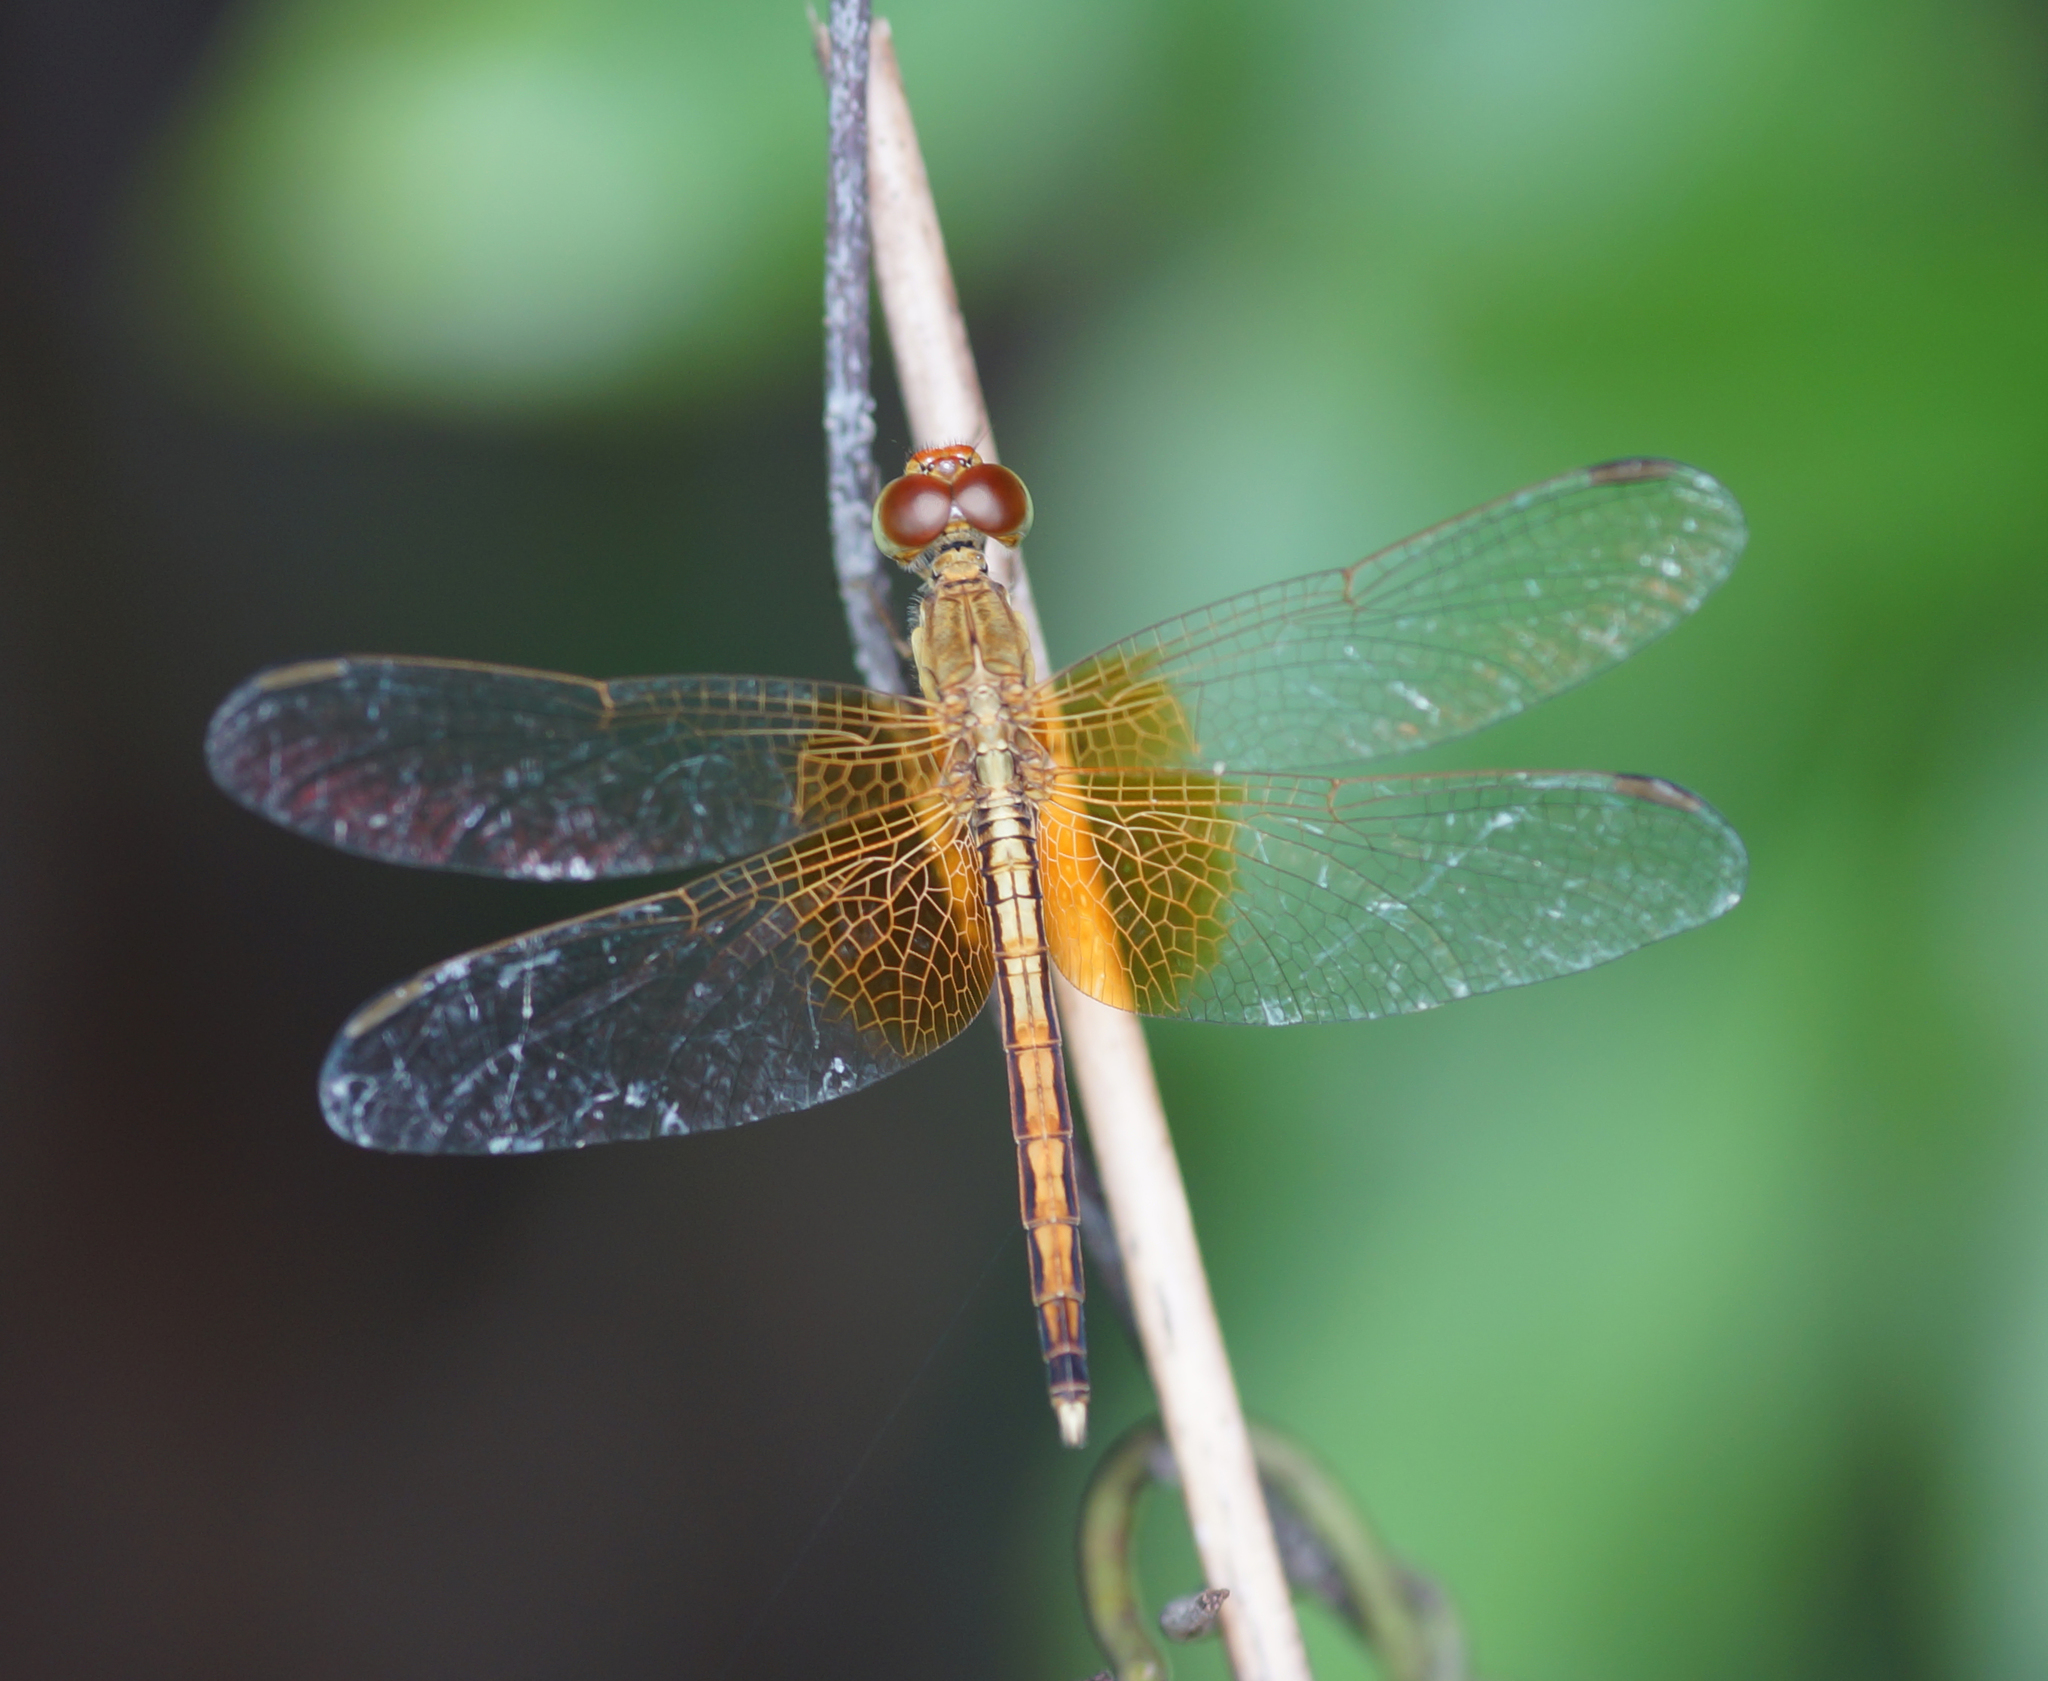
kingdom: Animalia
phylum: Arthropoda
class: Insecta
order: Odonata
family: Libellulidae
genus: Neurothemis
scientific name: Neurothemis intermedia
